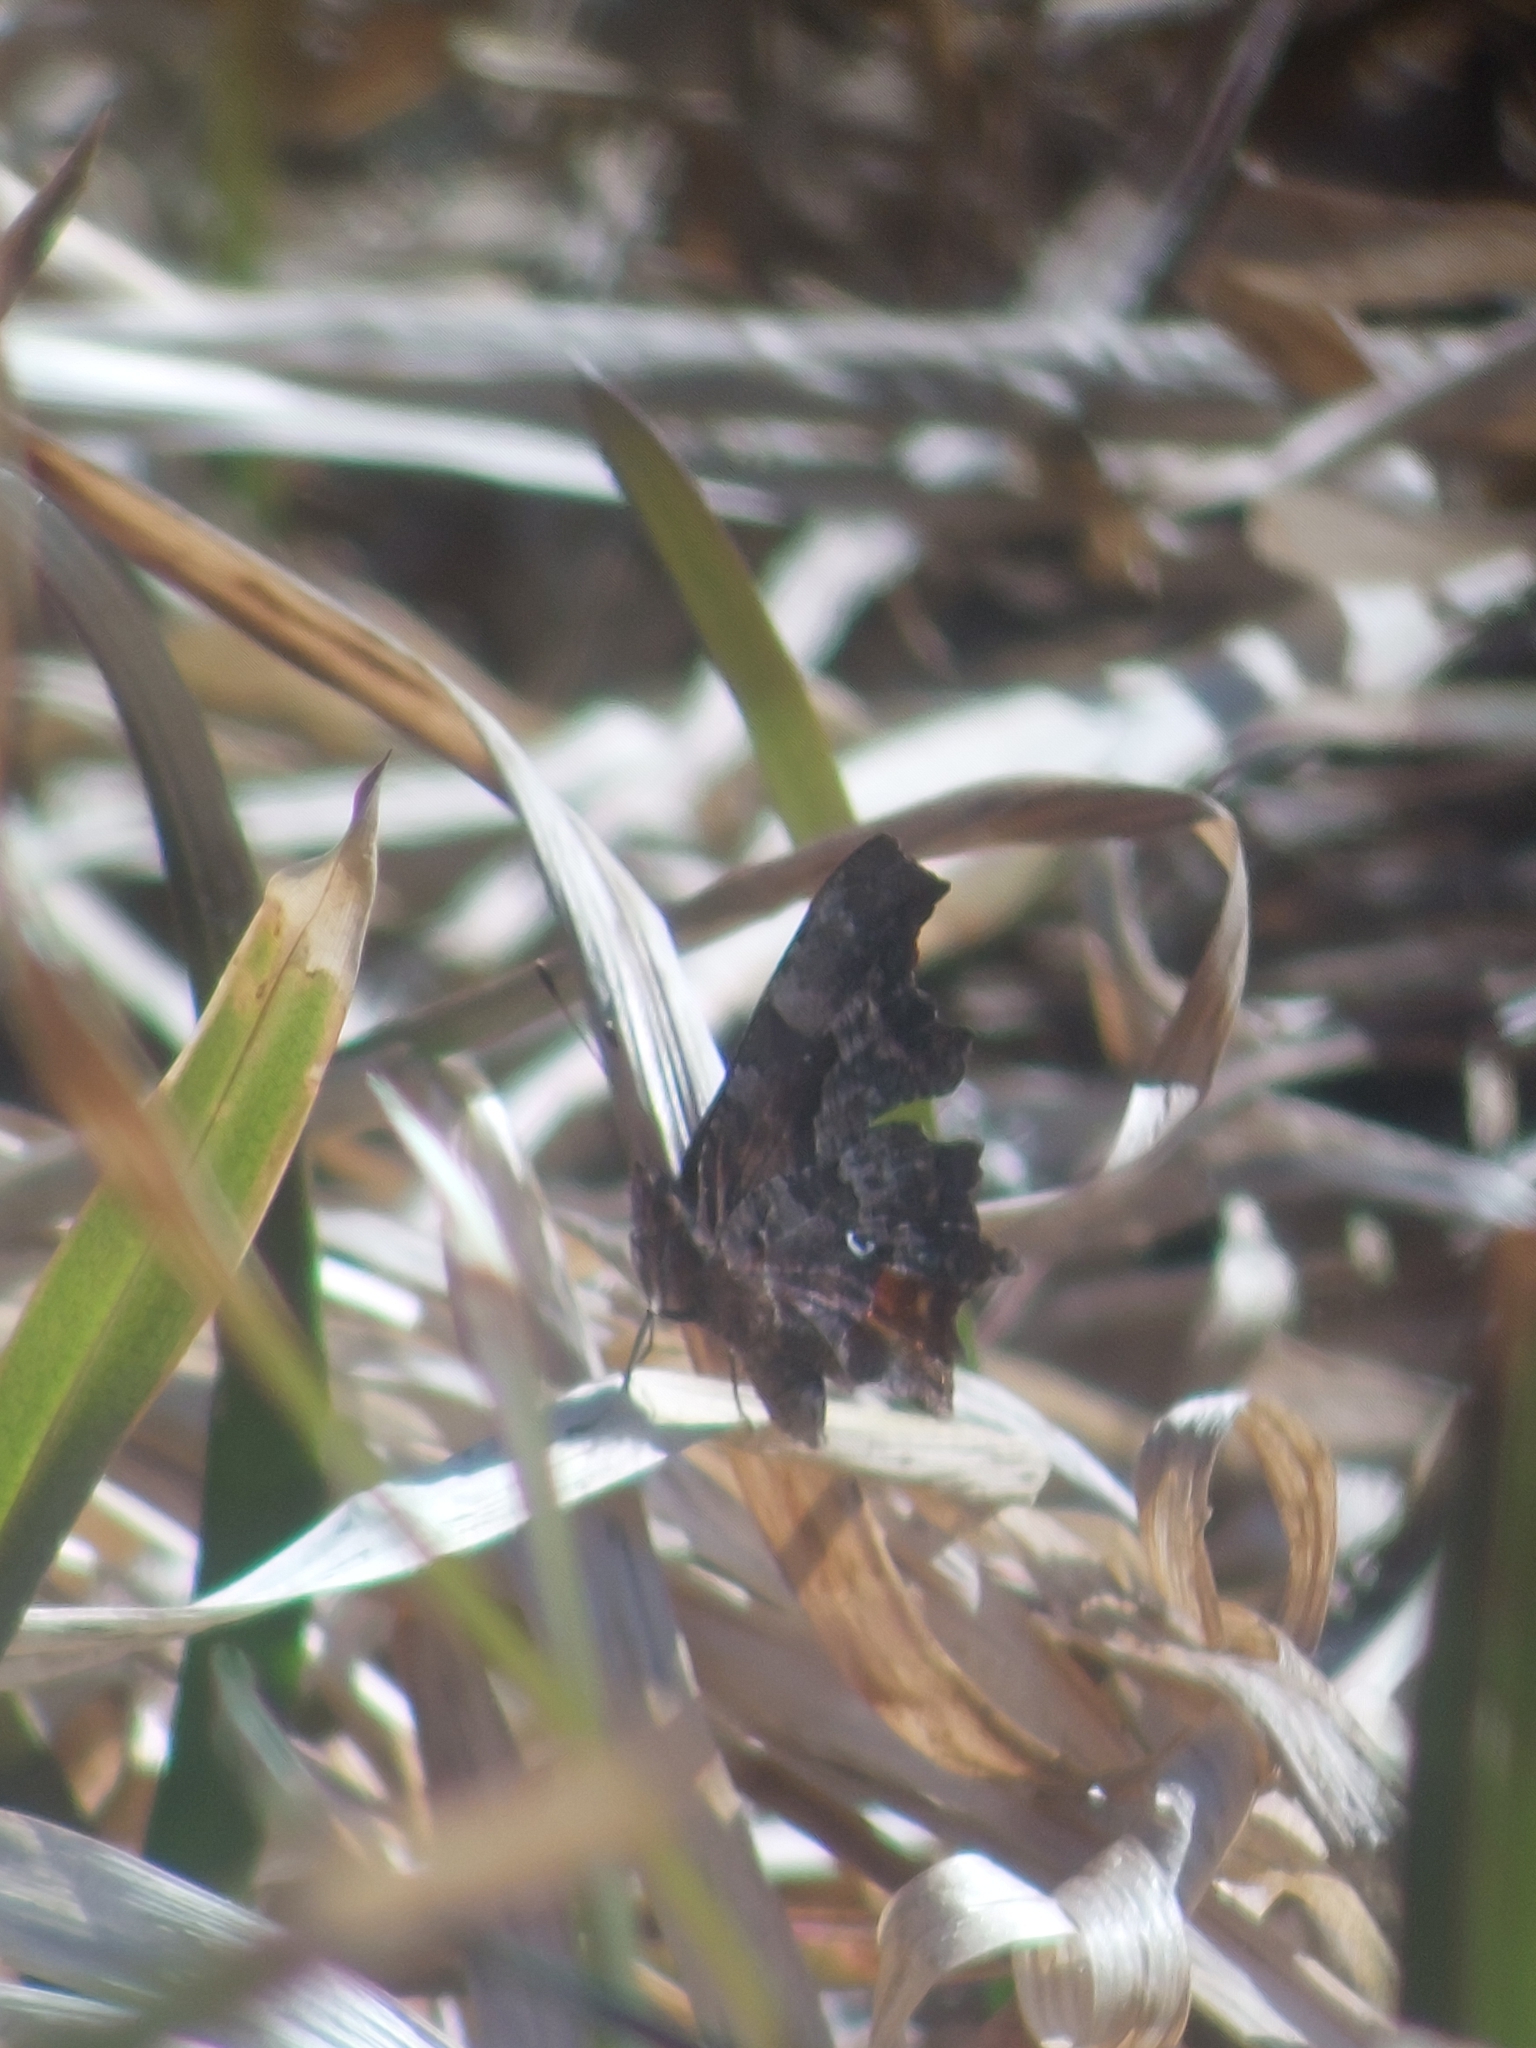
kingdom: Animalia
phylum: Arthropoda
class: Insecta
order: Lepidoptera
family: Nymphalidae
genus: Polygonia
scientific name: Polygonia c-album
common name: Comma
